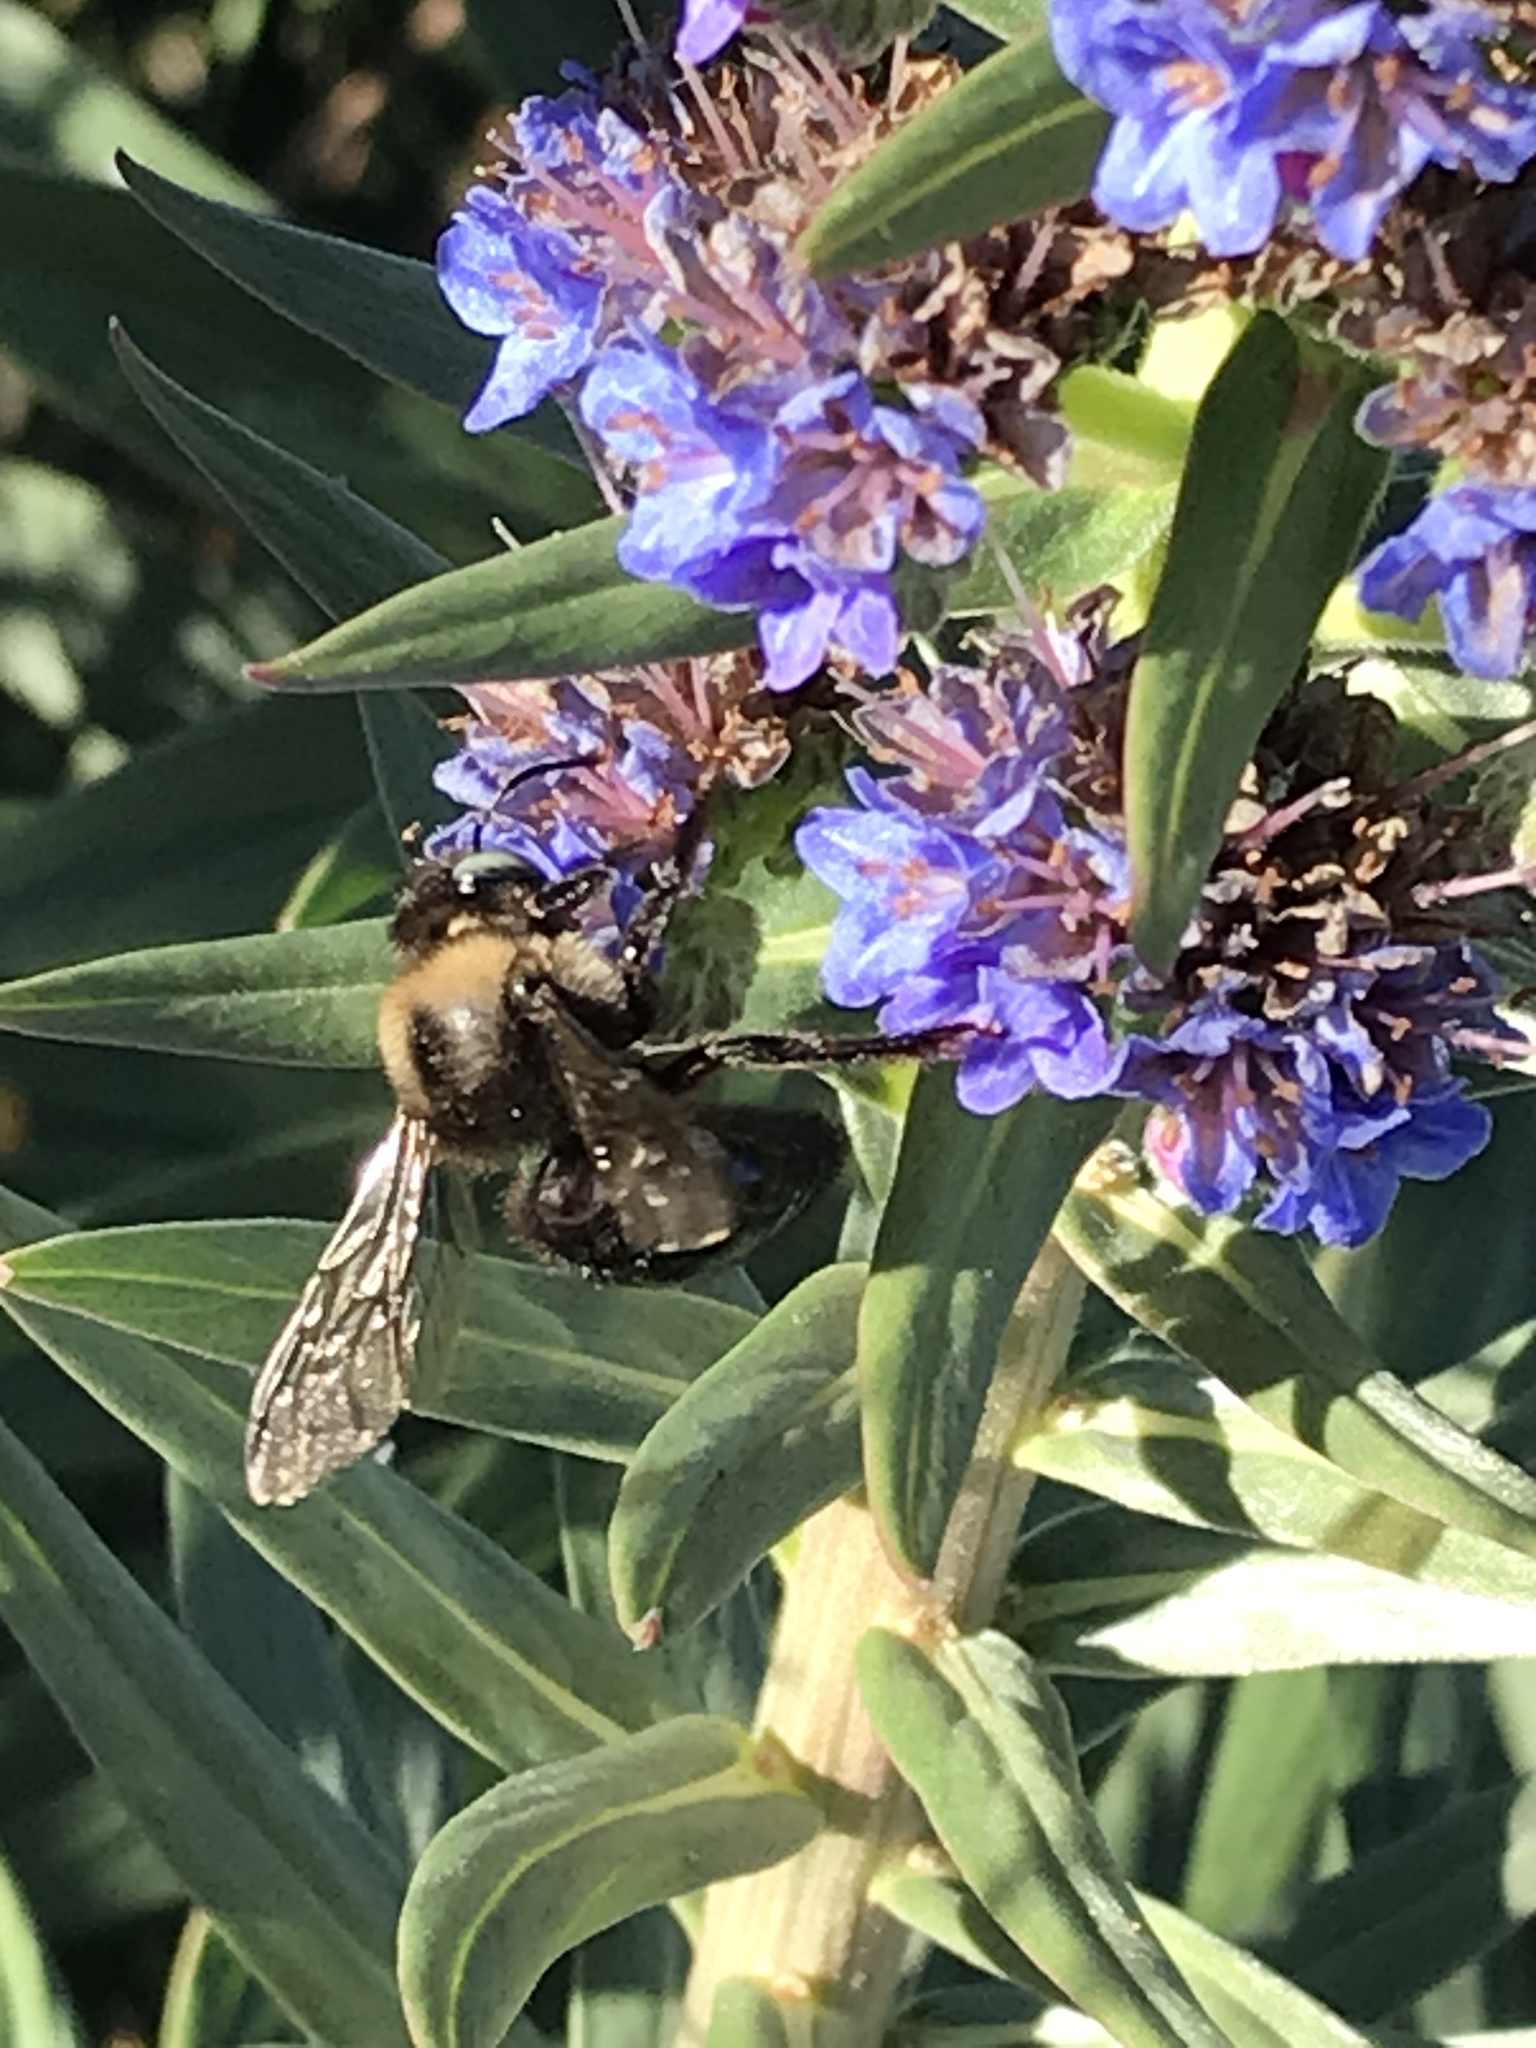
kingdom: Animalia
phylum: Arthropoda
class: Insecta
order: Hymenoptera
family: Apidae
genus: Xylocopa
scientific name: Xylocopa tabaniformis
